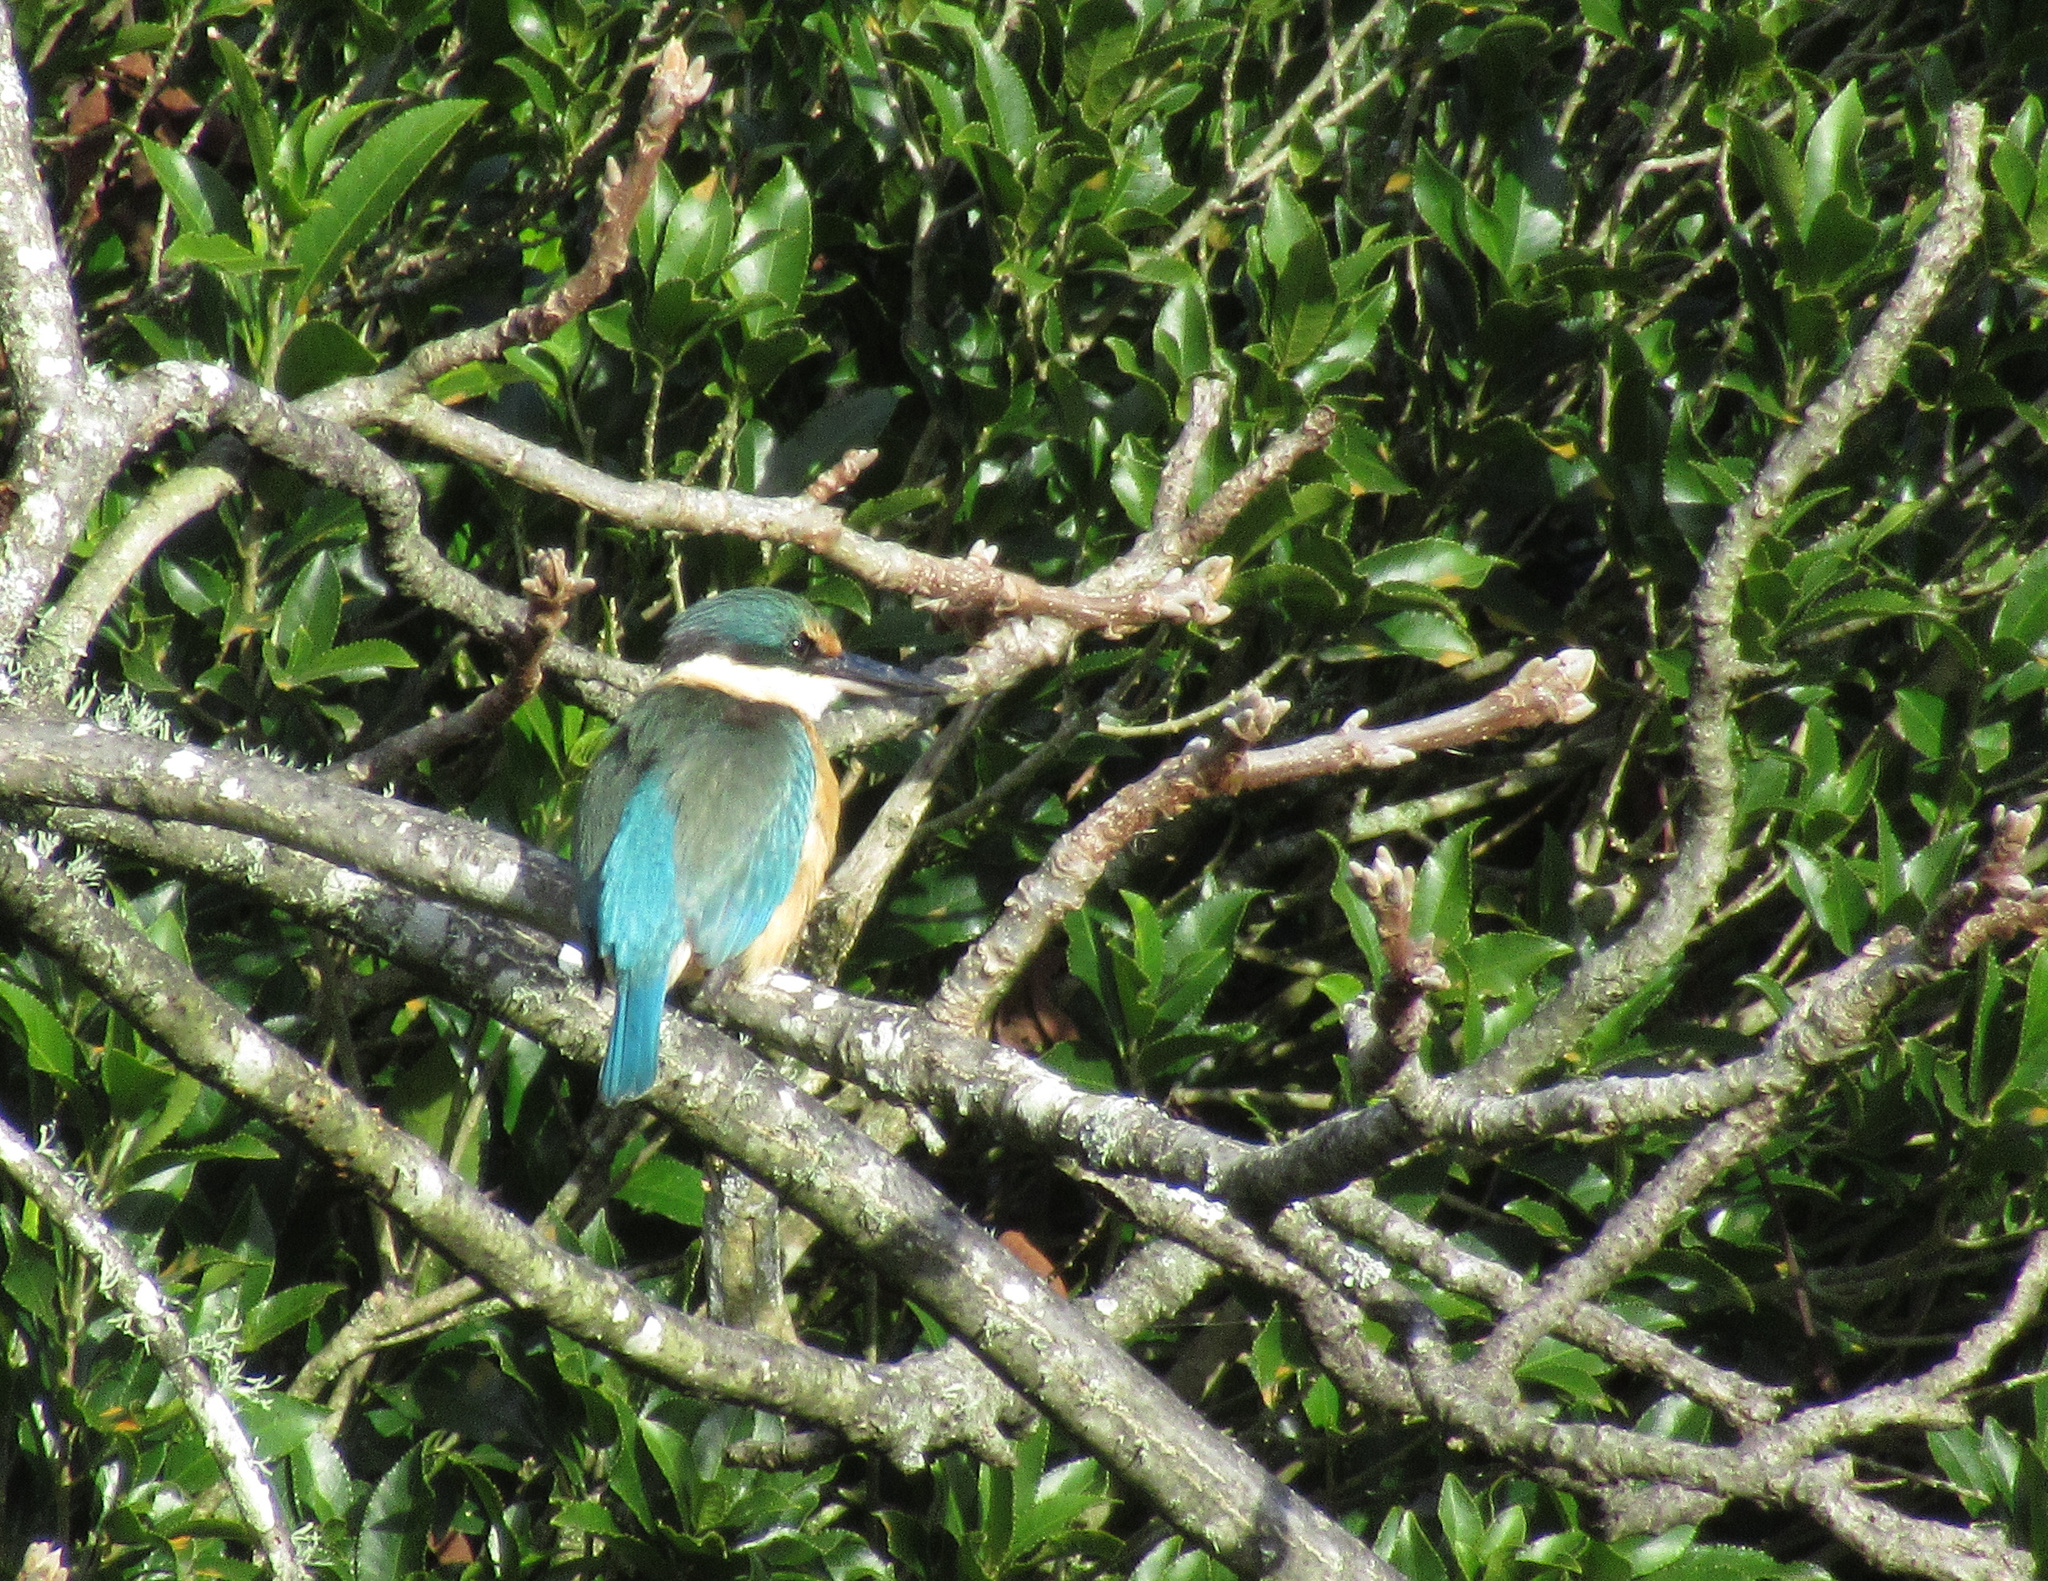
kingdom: Animalia
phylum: Chordata
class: Aves
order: Coraciiformes
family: Alcedinidae
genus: Todiramphus
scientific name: Todiramphus sanctus
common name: Sacred kingfisher
